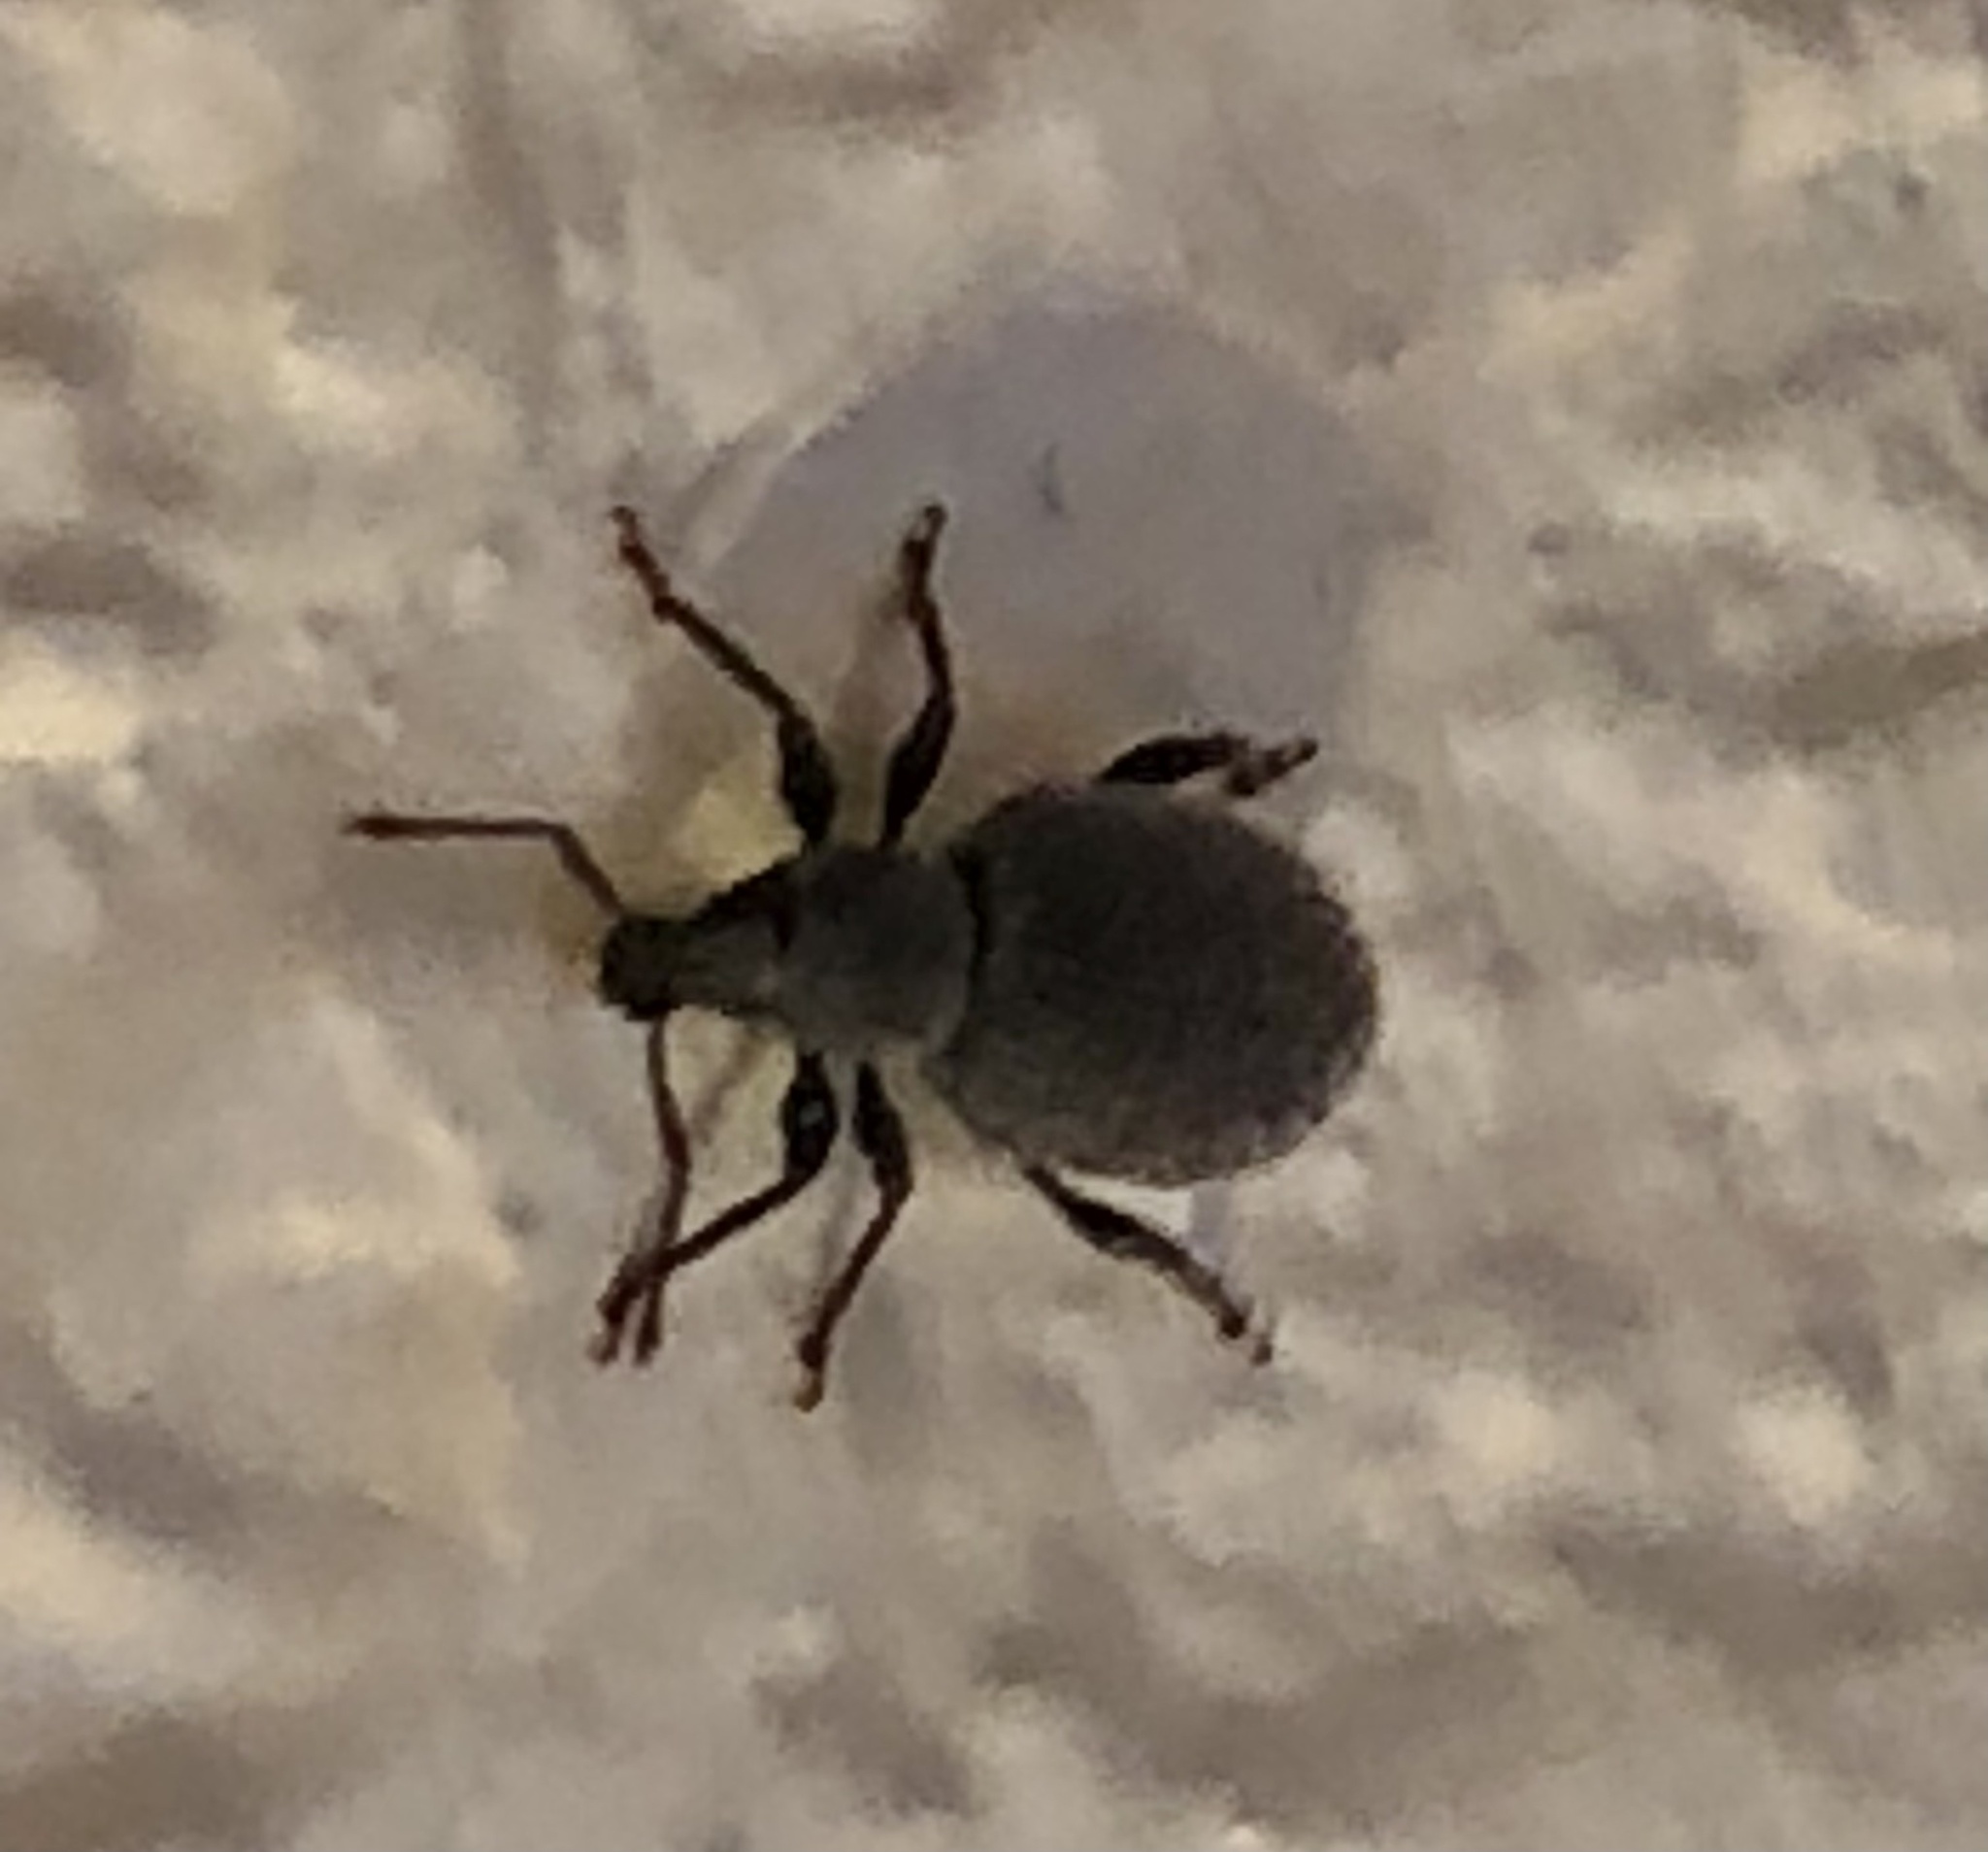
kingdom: Animalia
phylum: Arthropoda
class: Insecta
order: Coleoptera
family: Curculionidae
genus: Otiorhynchus
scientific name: Otiorhynchus rugosostriatus
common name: Weevil
